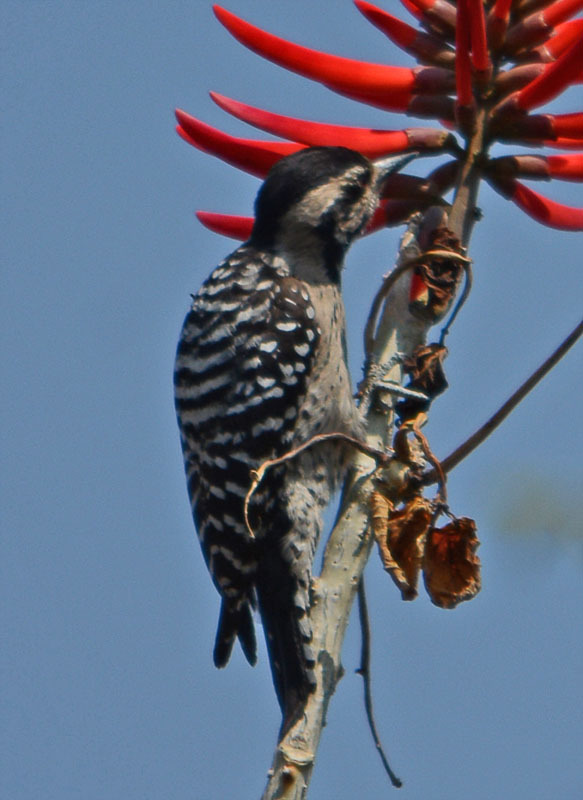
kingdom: Animalia
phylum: Chordata
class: Aves
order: Piciformes
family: Picidae
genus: Dryobates
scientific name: Dryobates scalaris
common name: Ladder-backed woodpecker
